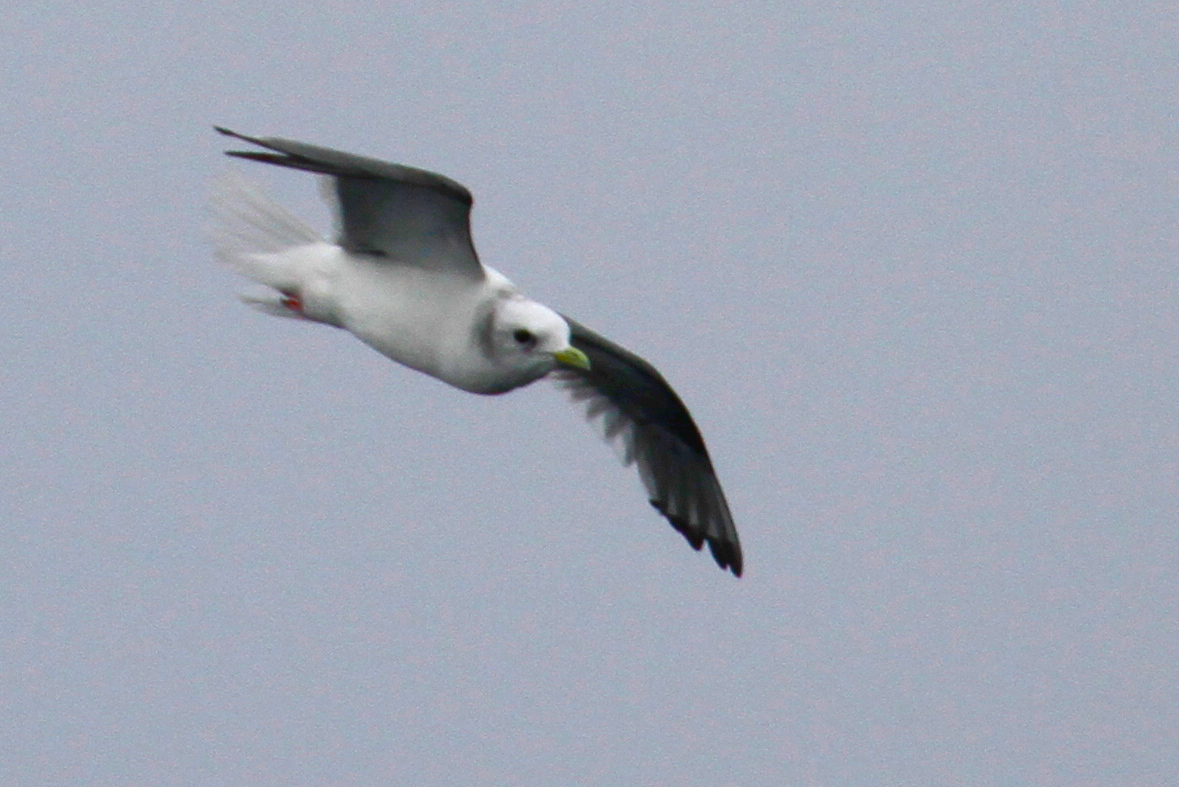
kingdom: Animalia
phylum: Chordata
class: Aves
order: Charadriiformes
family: Laridae
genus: Rissa
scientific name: Rissa brevirostris
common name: Red-legged kittiwake
